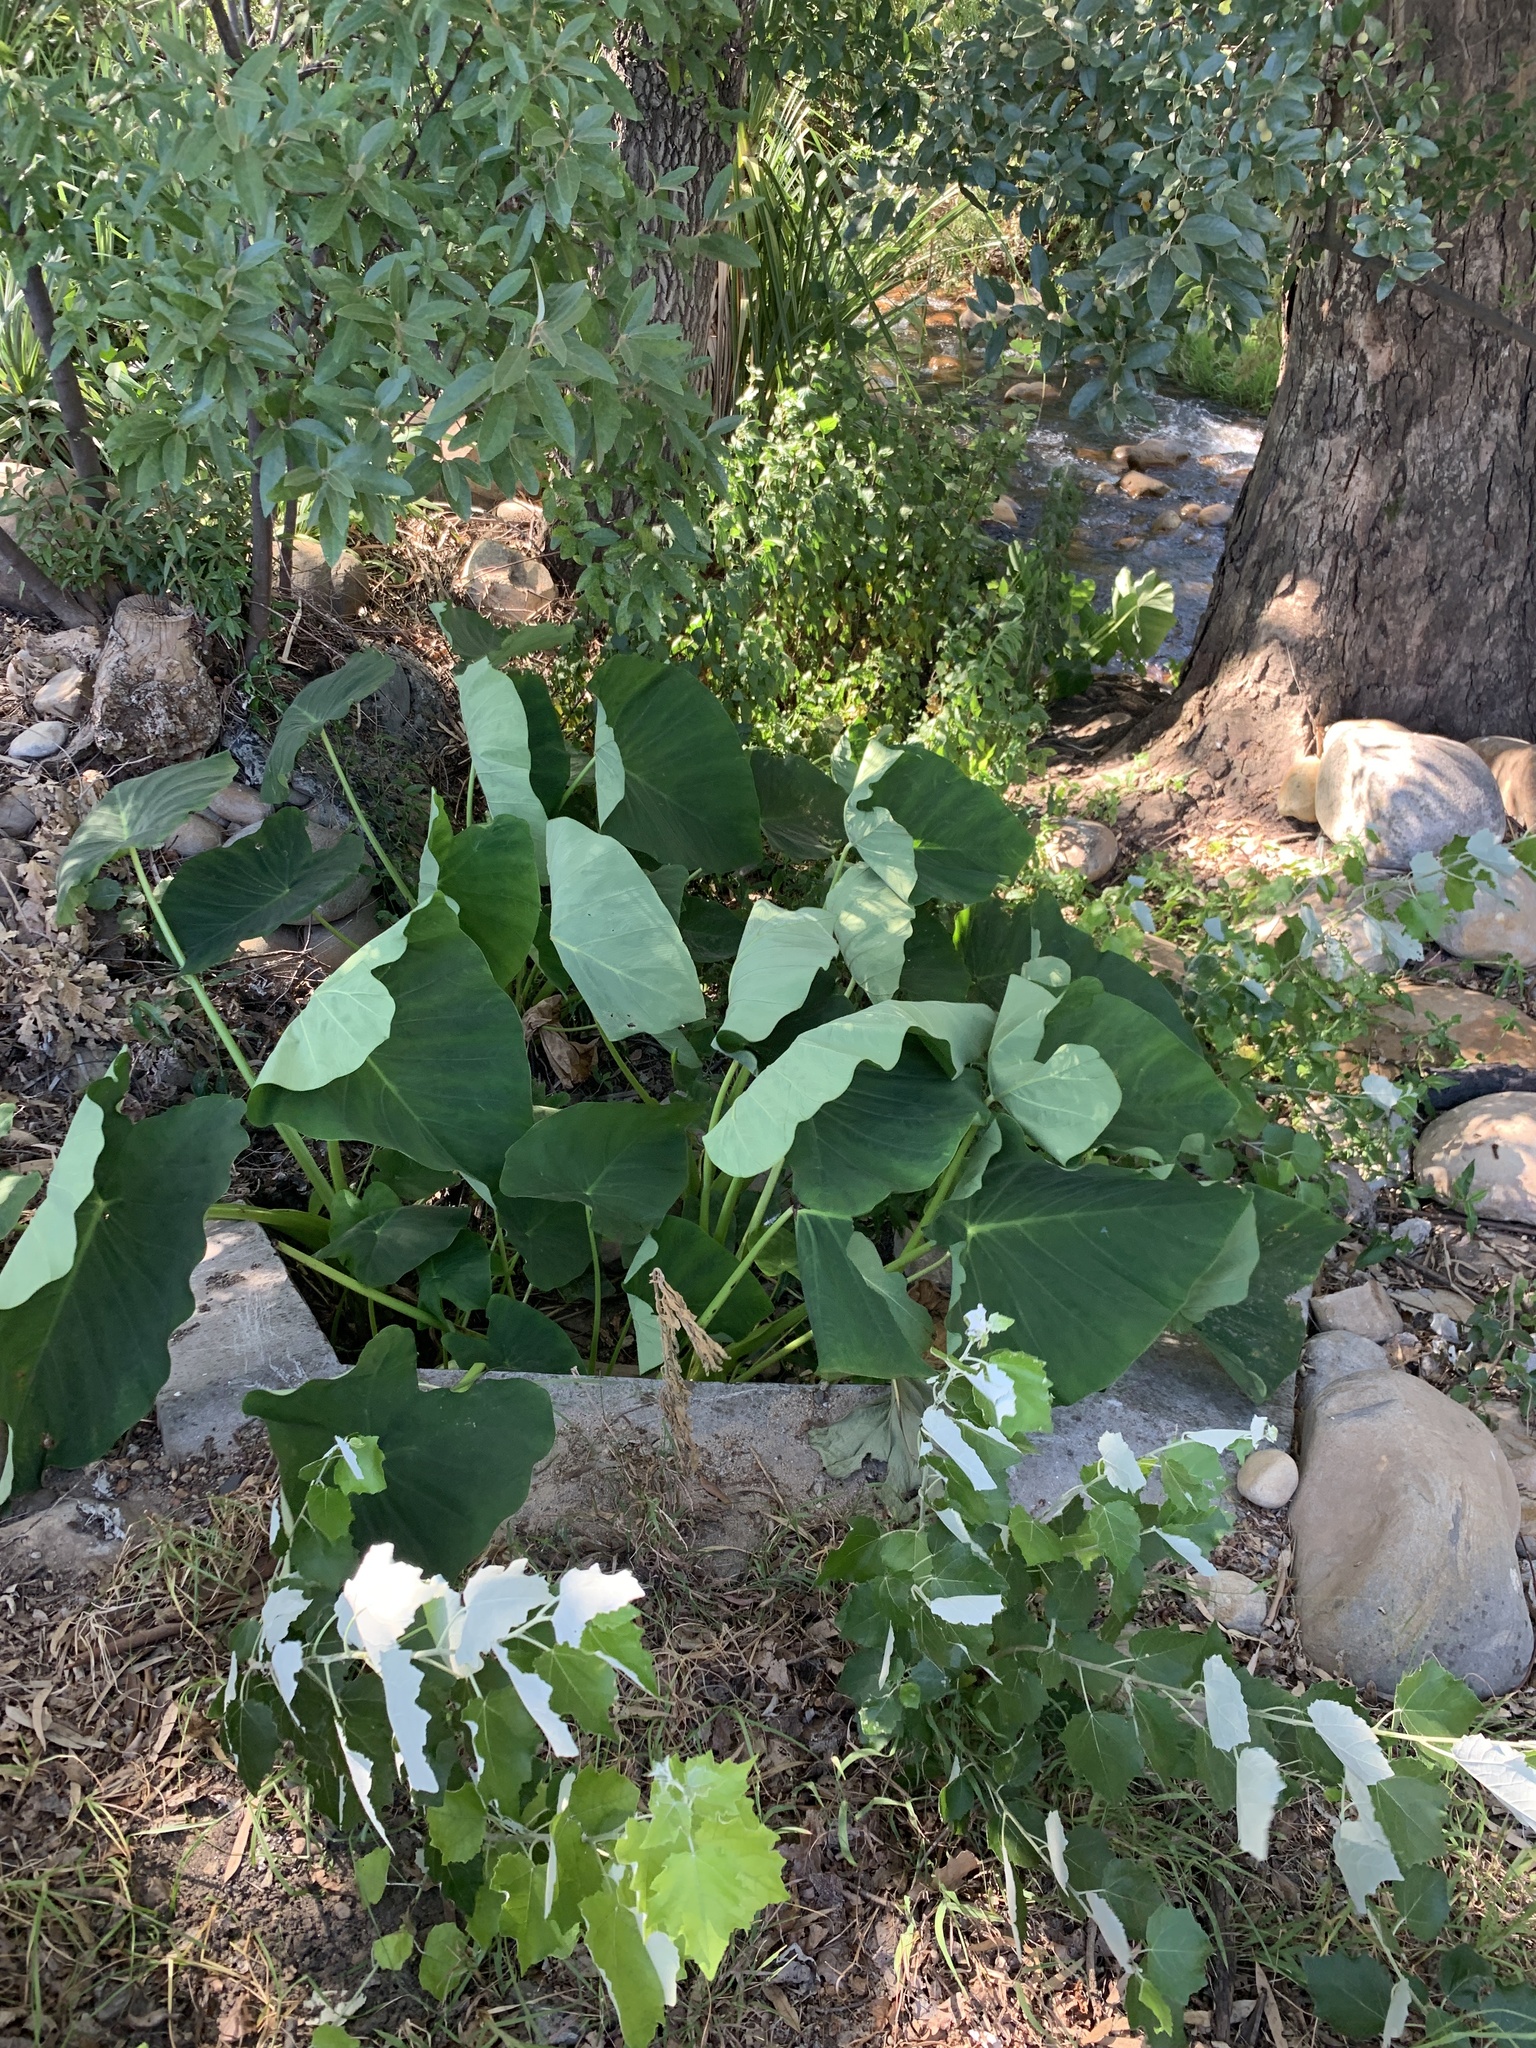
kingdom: Plantae
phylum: Tracheophyta
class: Liliopsida
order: Alismatales
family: Araceae
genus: Colocasia
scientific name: Colocasia esculenta
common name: Taro
